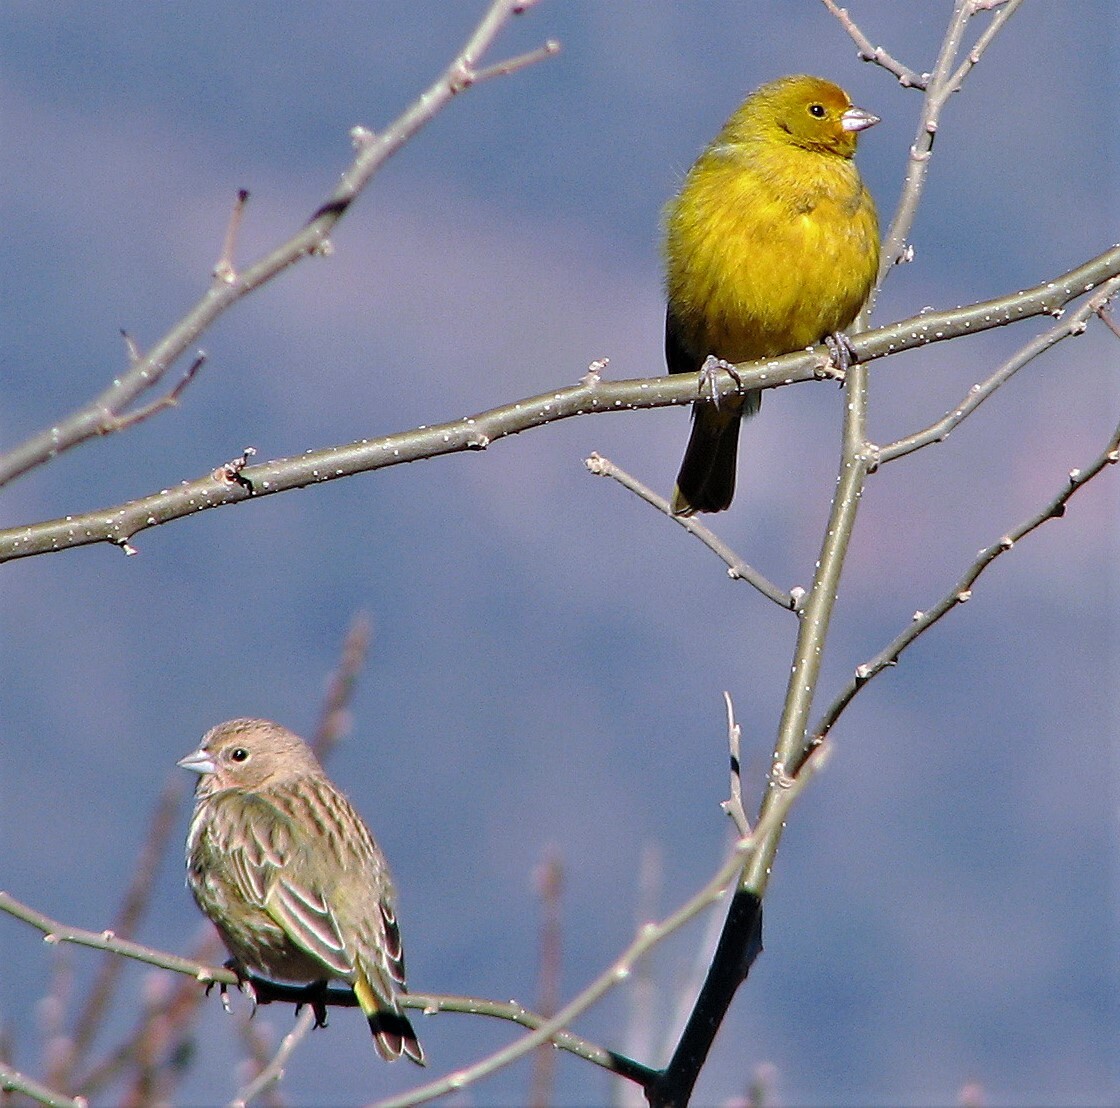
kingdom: Animalia
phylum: Chordata
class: Aves
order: Passeriformes
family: Thraupidae
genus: Sicalis
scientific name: Sicalis flaveola
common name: Saffron finch
